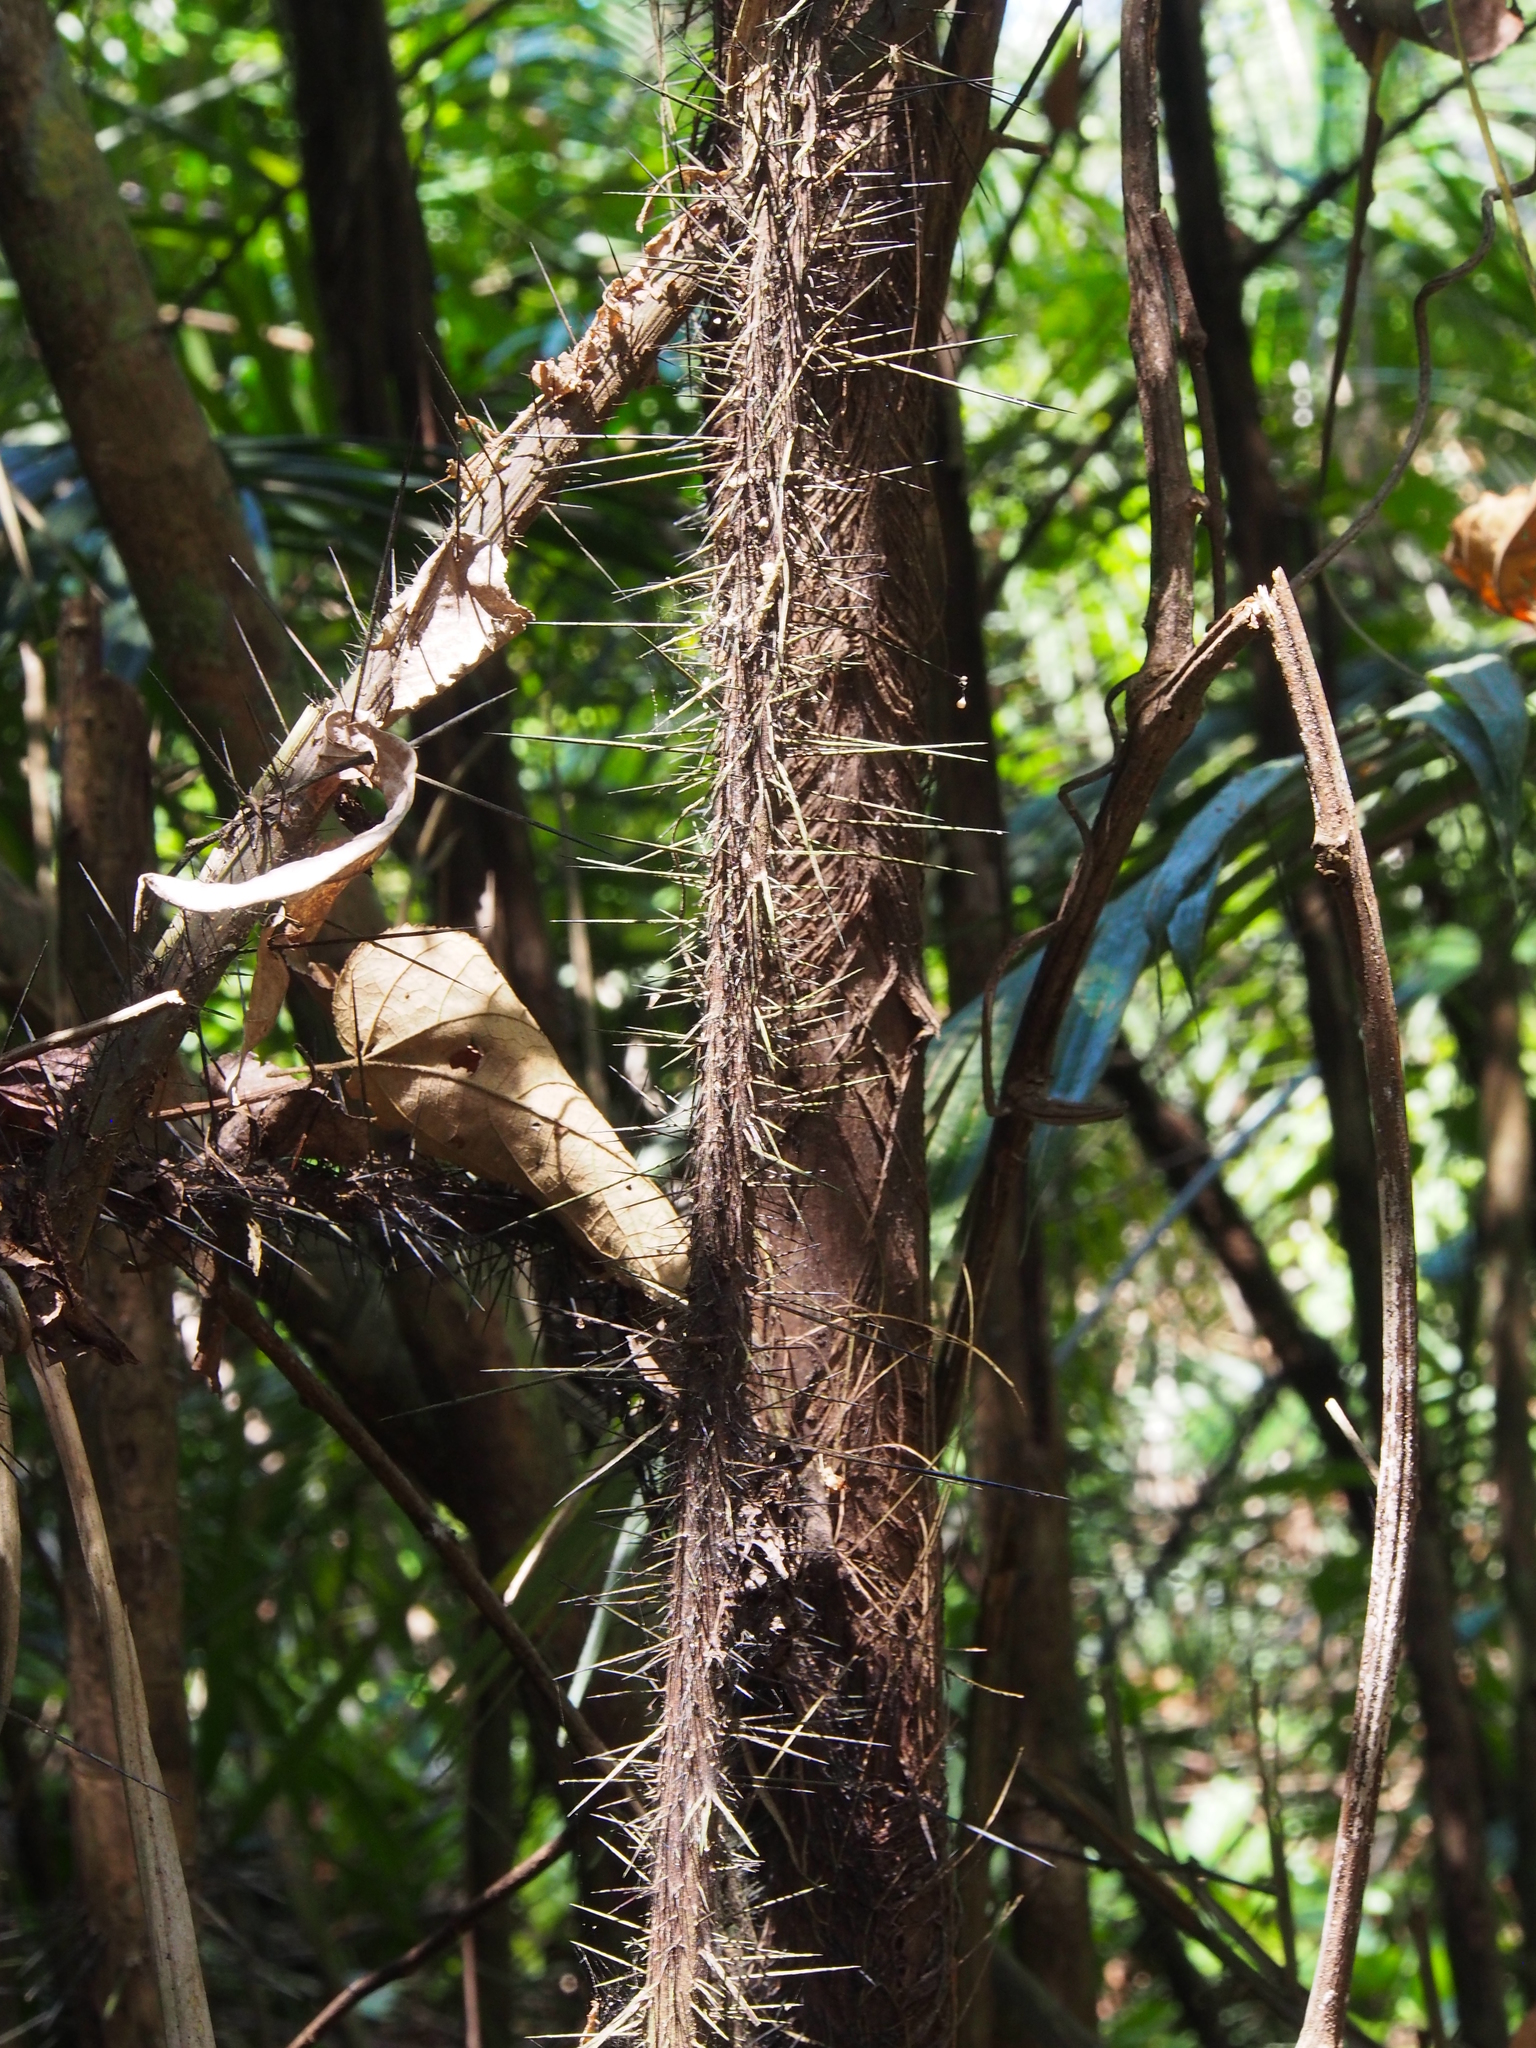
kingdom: Plantae
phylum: Tracheophyta
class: Liliopsida
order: Arecales
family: Arecaceae
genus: Cryosophila
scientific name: Cryosophila guagara
